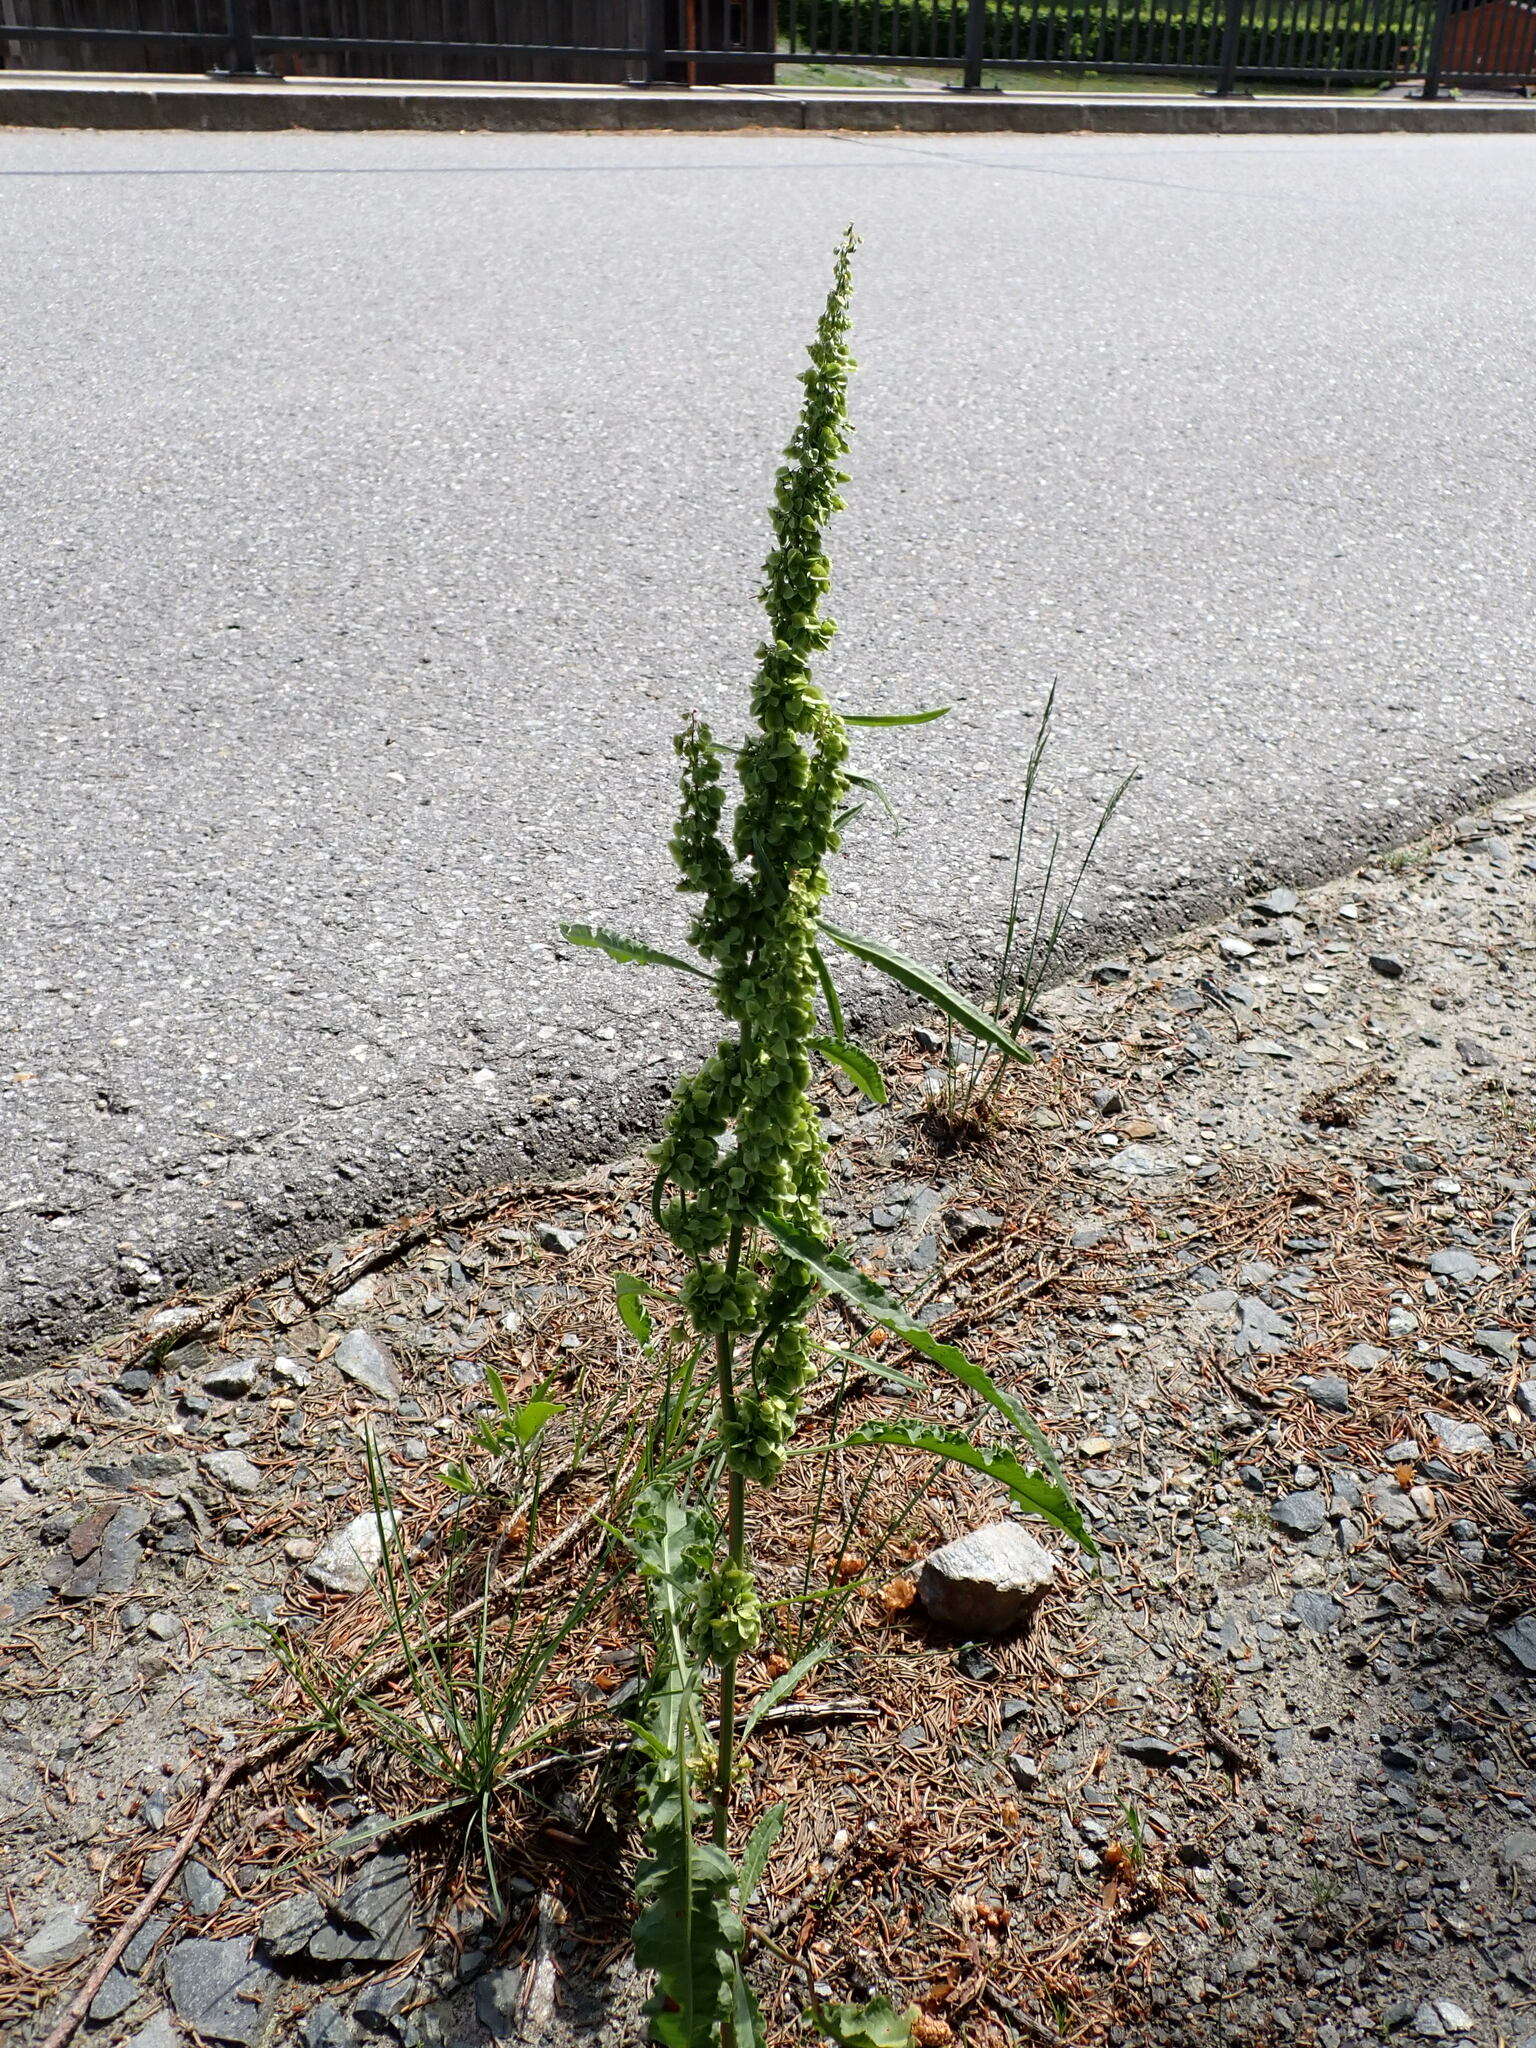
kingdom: Plantae
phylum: Tracheophyta
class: Magnoliopsida
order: Caryophyllales
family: Polygonaceae
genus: Rumex
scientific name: Rumex crispus
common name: Curled dock
